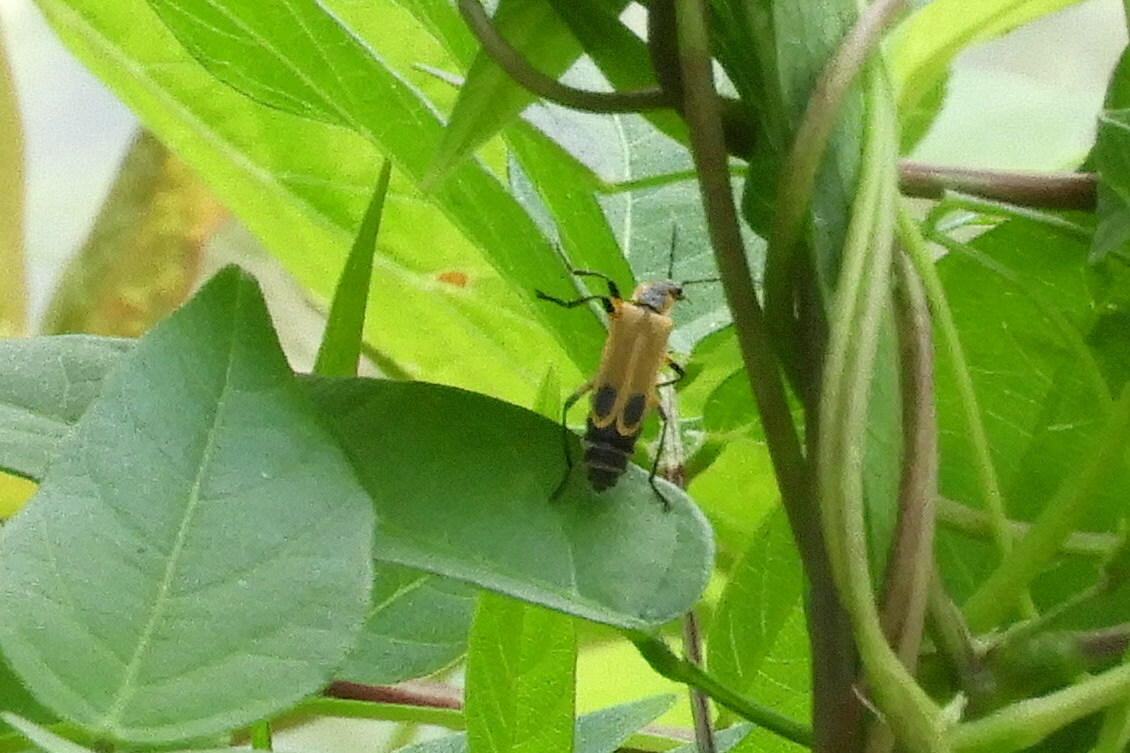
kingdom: Animalia
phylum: Arthropoda
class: Insecta
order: Coleoptera
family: Cantharidae
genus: Chauliognathus
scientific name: Chauliognathus marginatus
